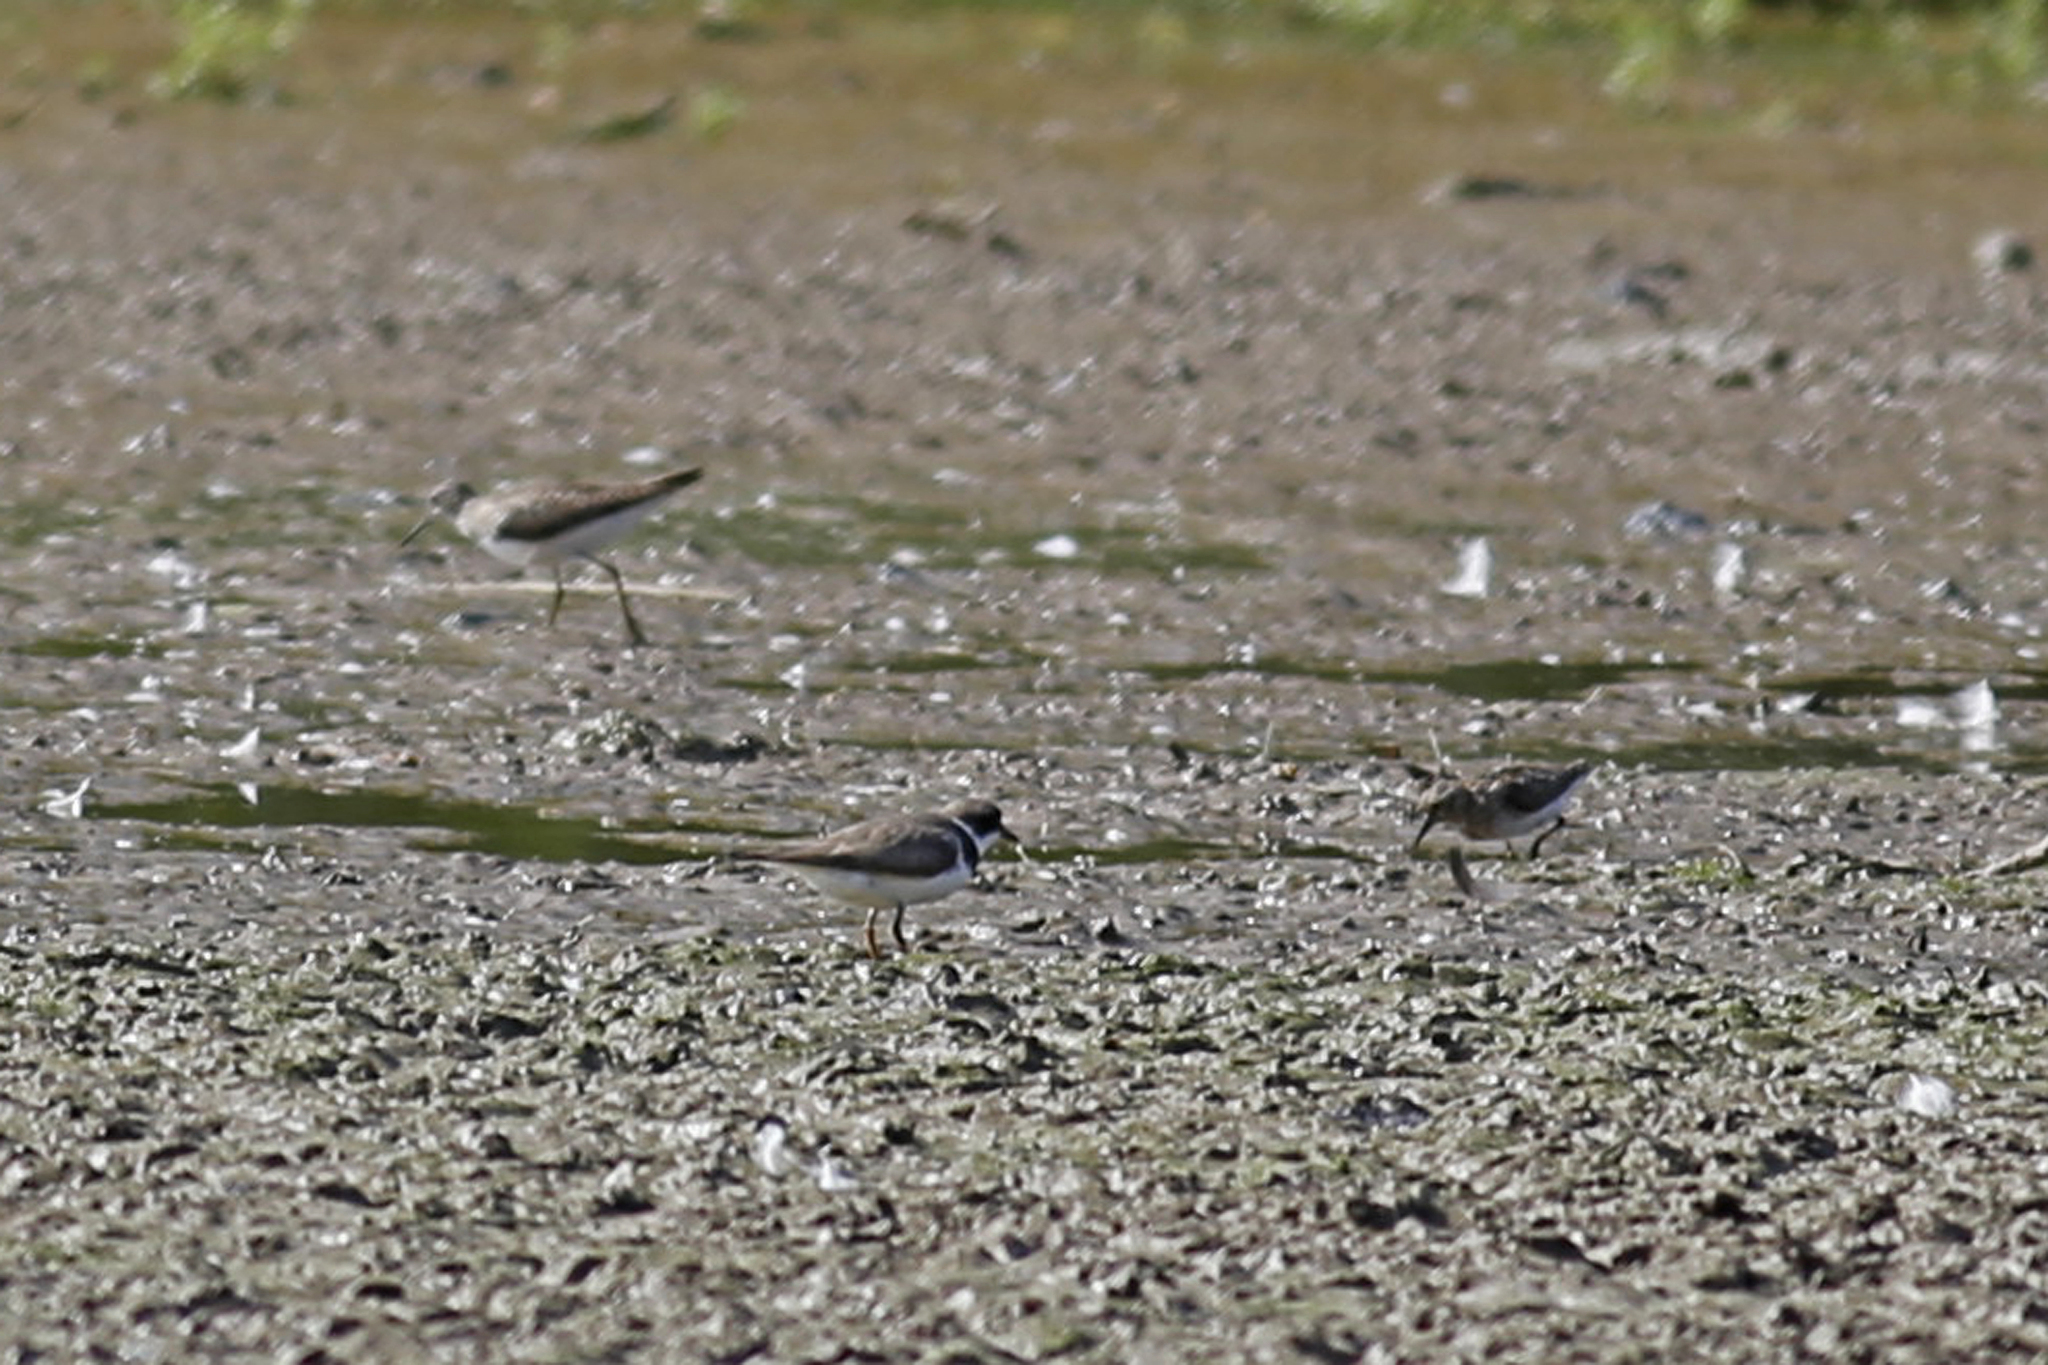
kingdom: Animalia
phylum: Chordata
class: Aves
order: Charadriiformes
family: Charadriidae
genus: Charadrius
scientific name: Charadrius semipalmatus
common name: Semipalmated plover
